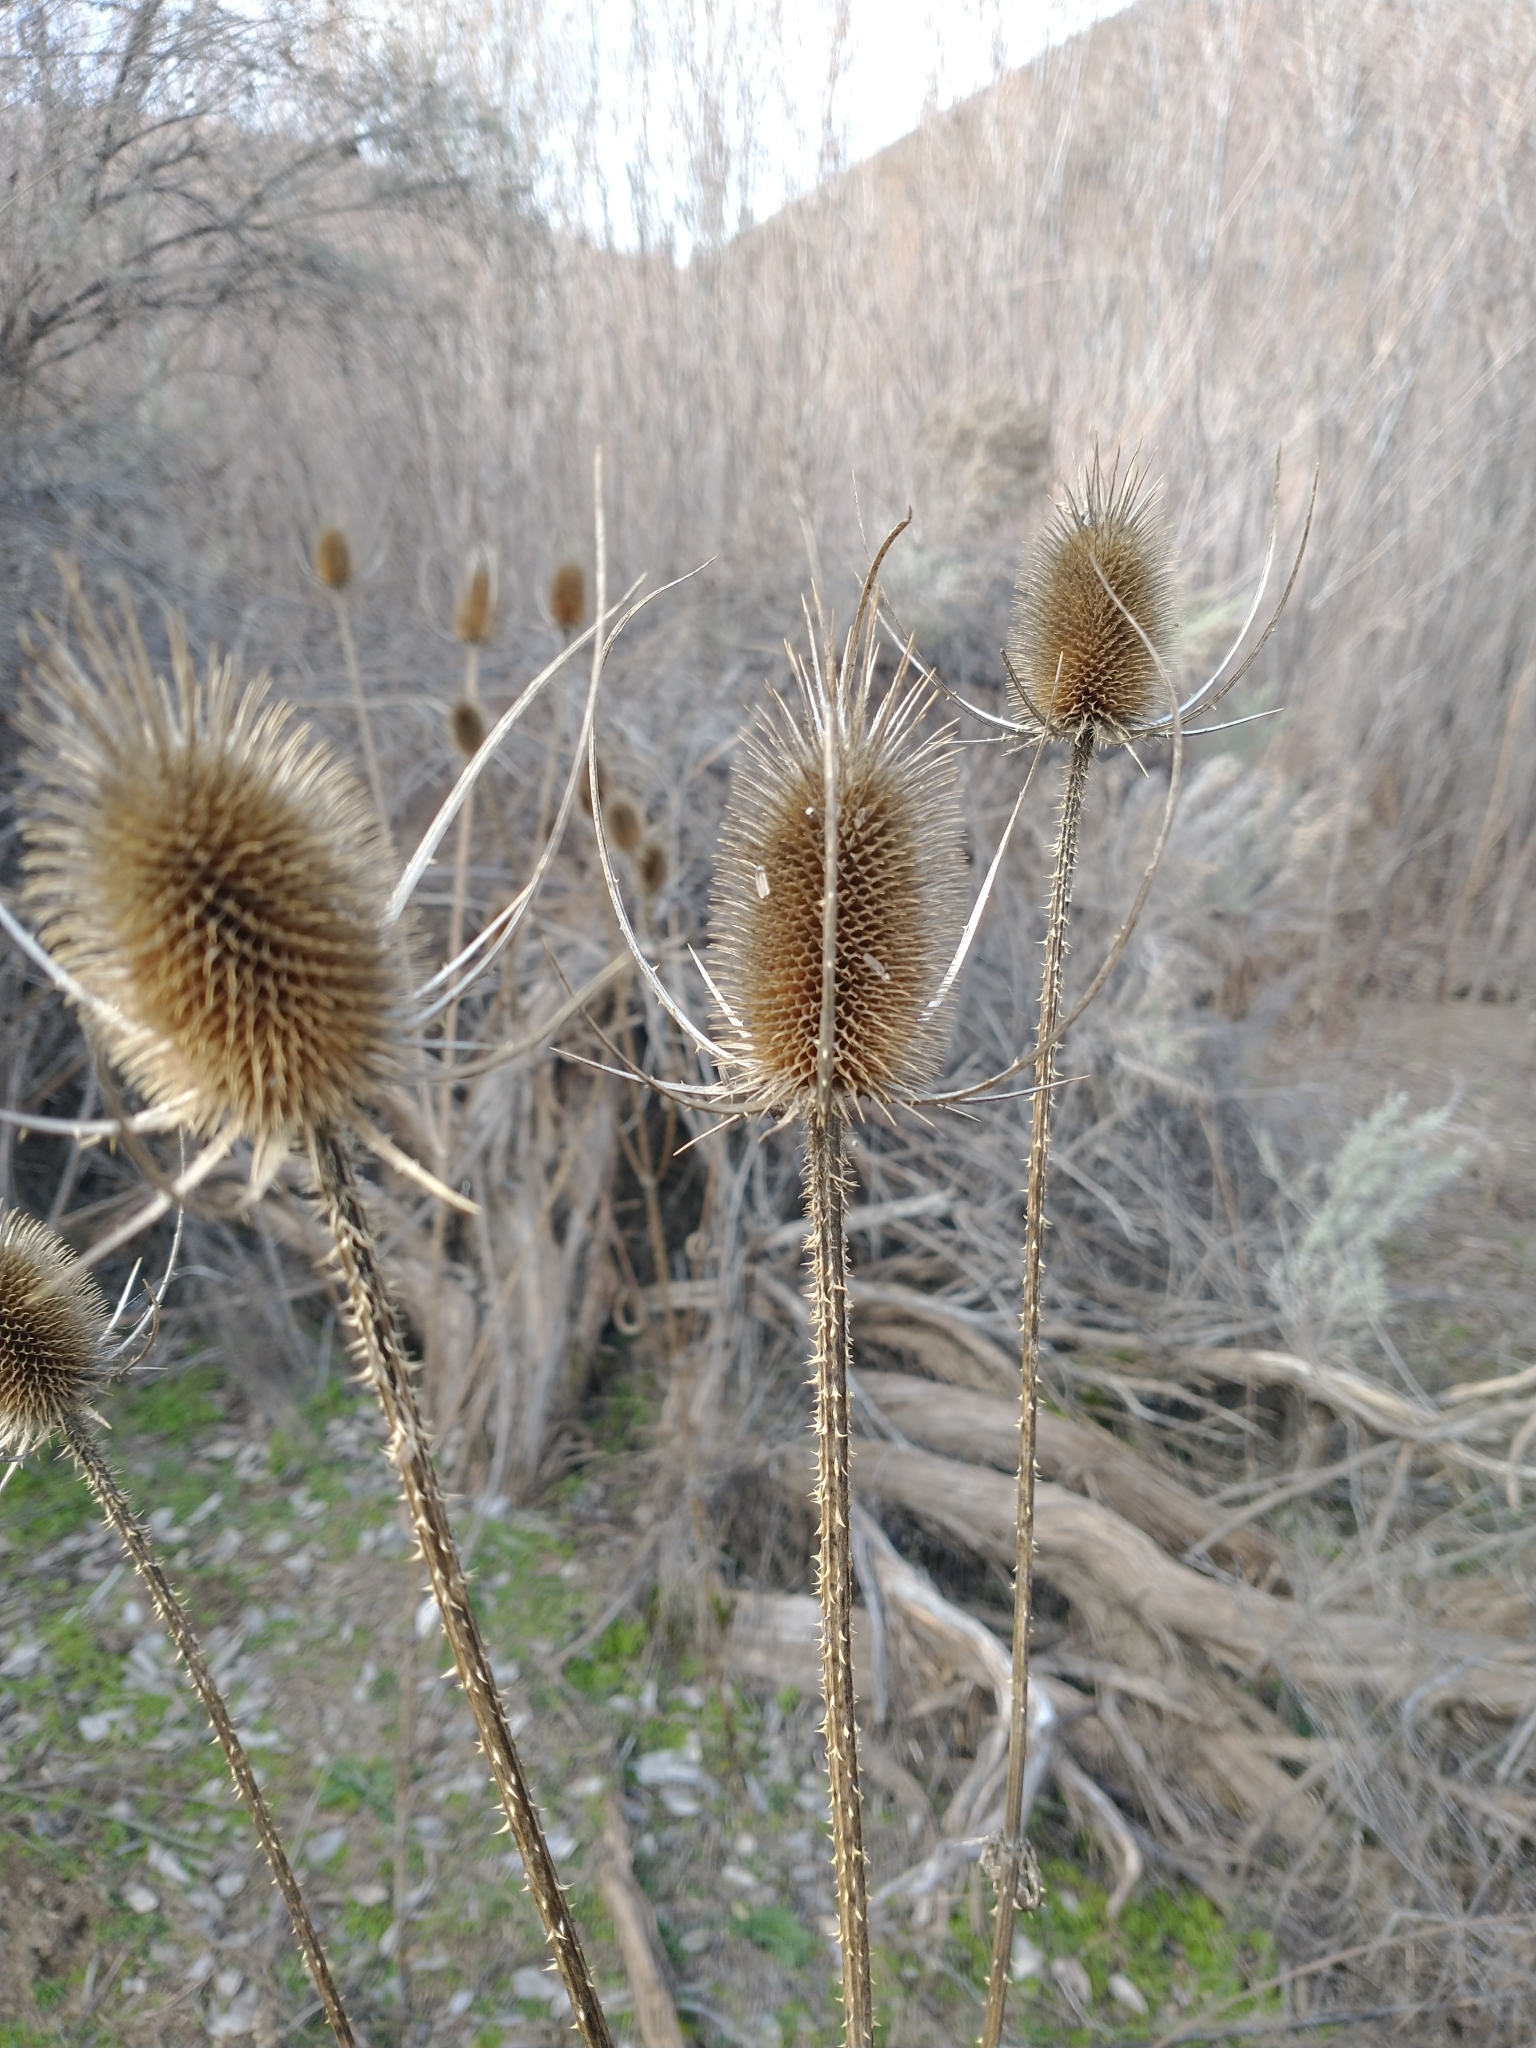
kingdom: Plantae
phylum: Tracheophyta
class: Magnoliopsida
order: Dipsacales
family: Caprifoliaceae
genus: Dipsacus
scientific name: Dipsacus fullonum
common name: Teasel
